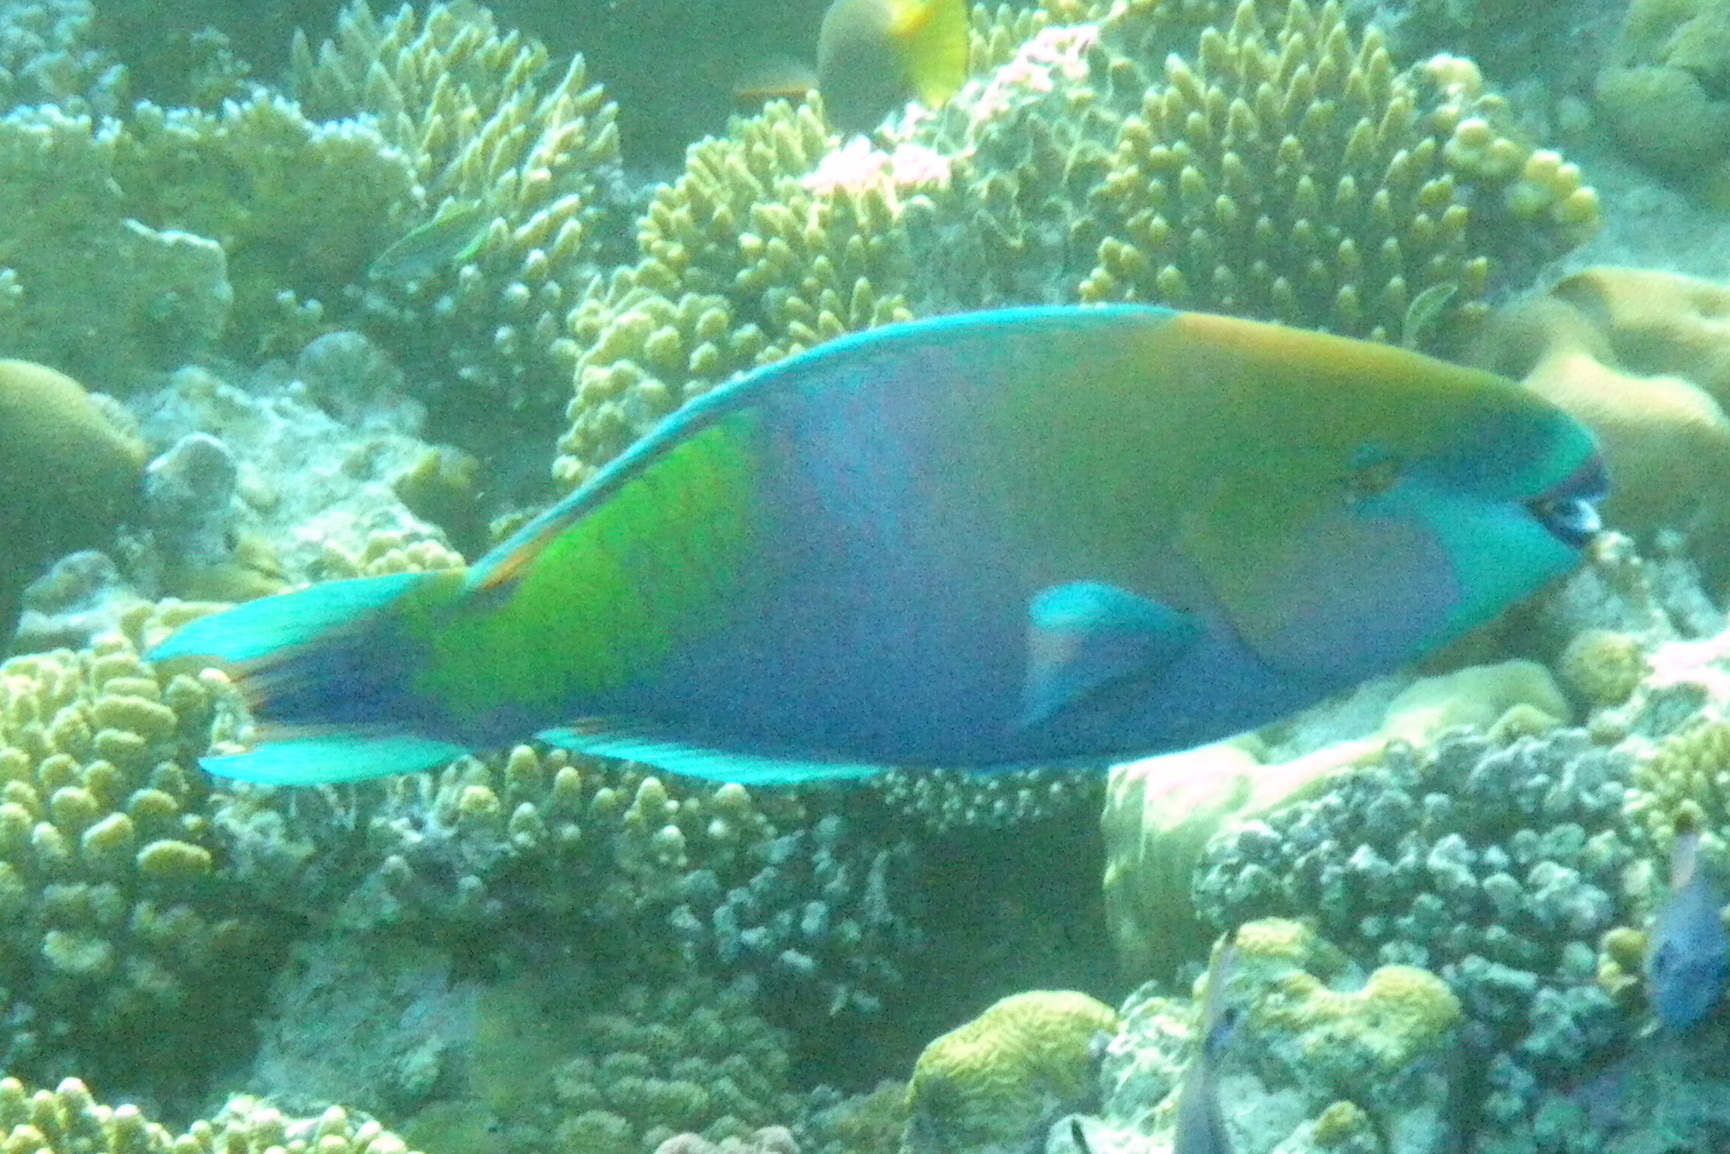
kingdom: Animalia
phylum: Chordata
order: Perciformes
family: Scaridae
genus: Scarus
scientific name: Scarus ferrugineus
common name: Rusty parrotfish
